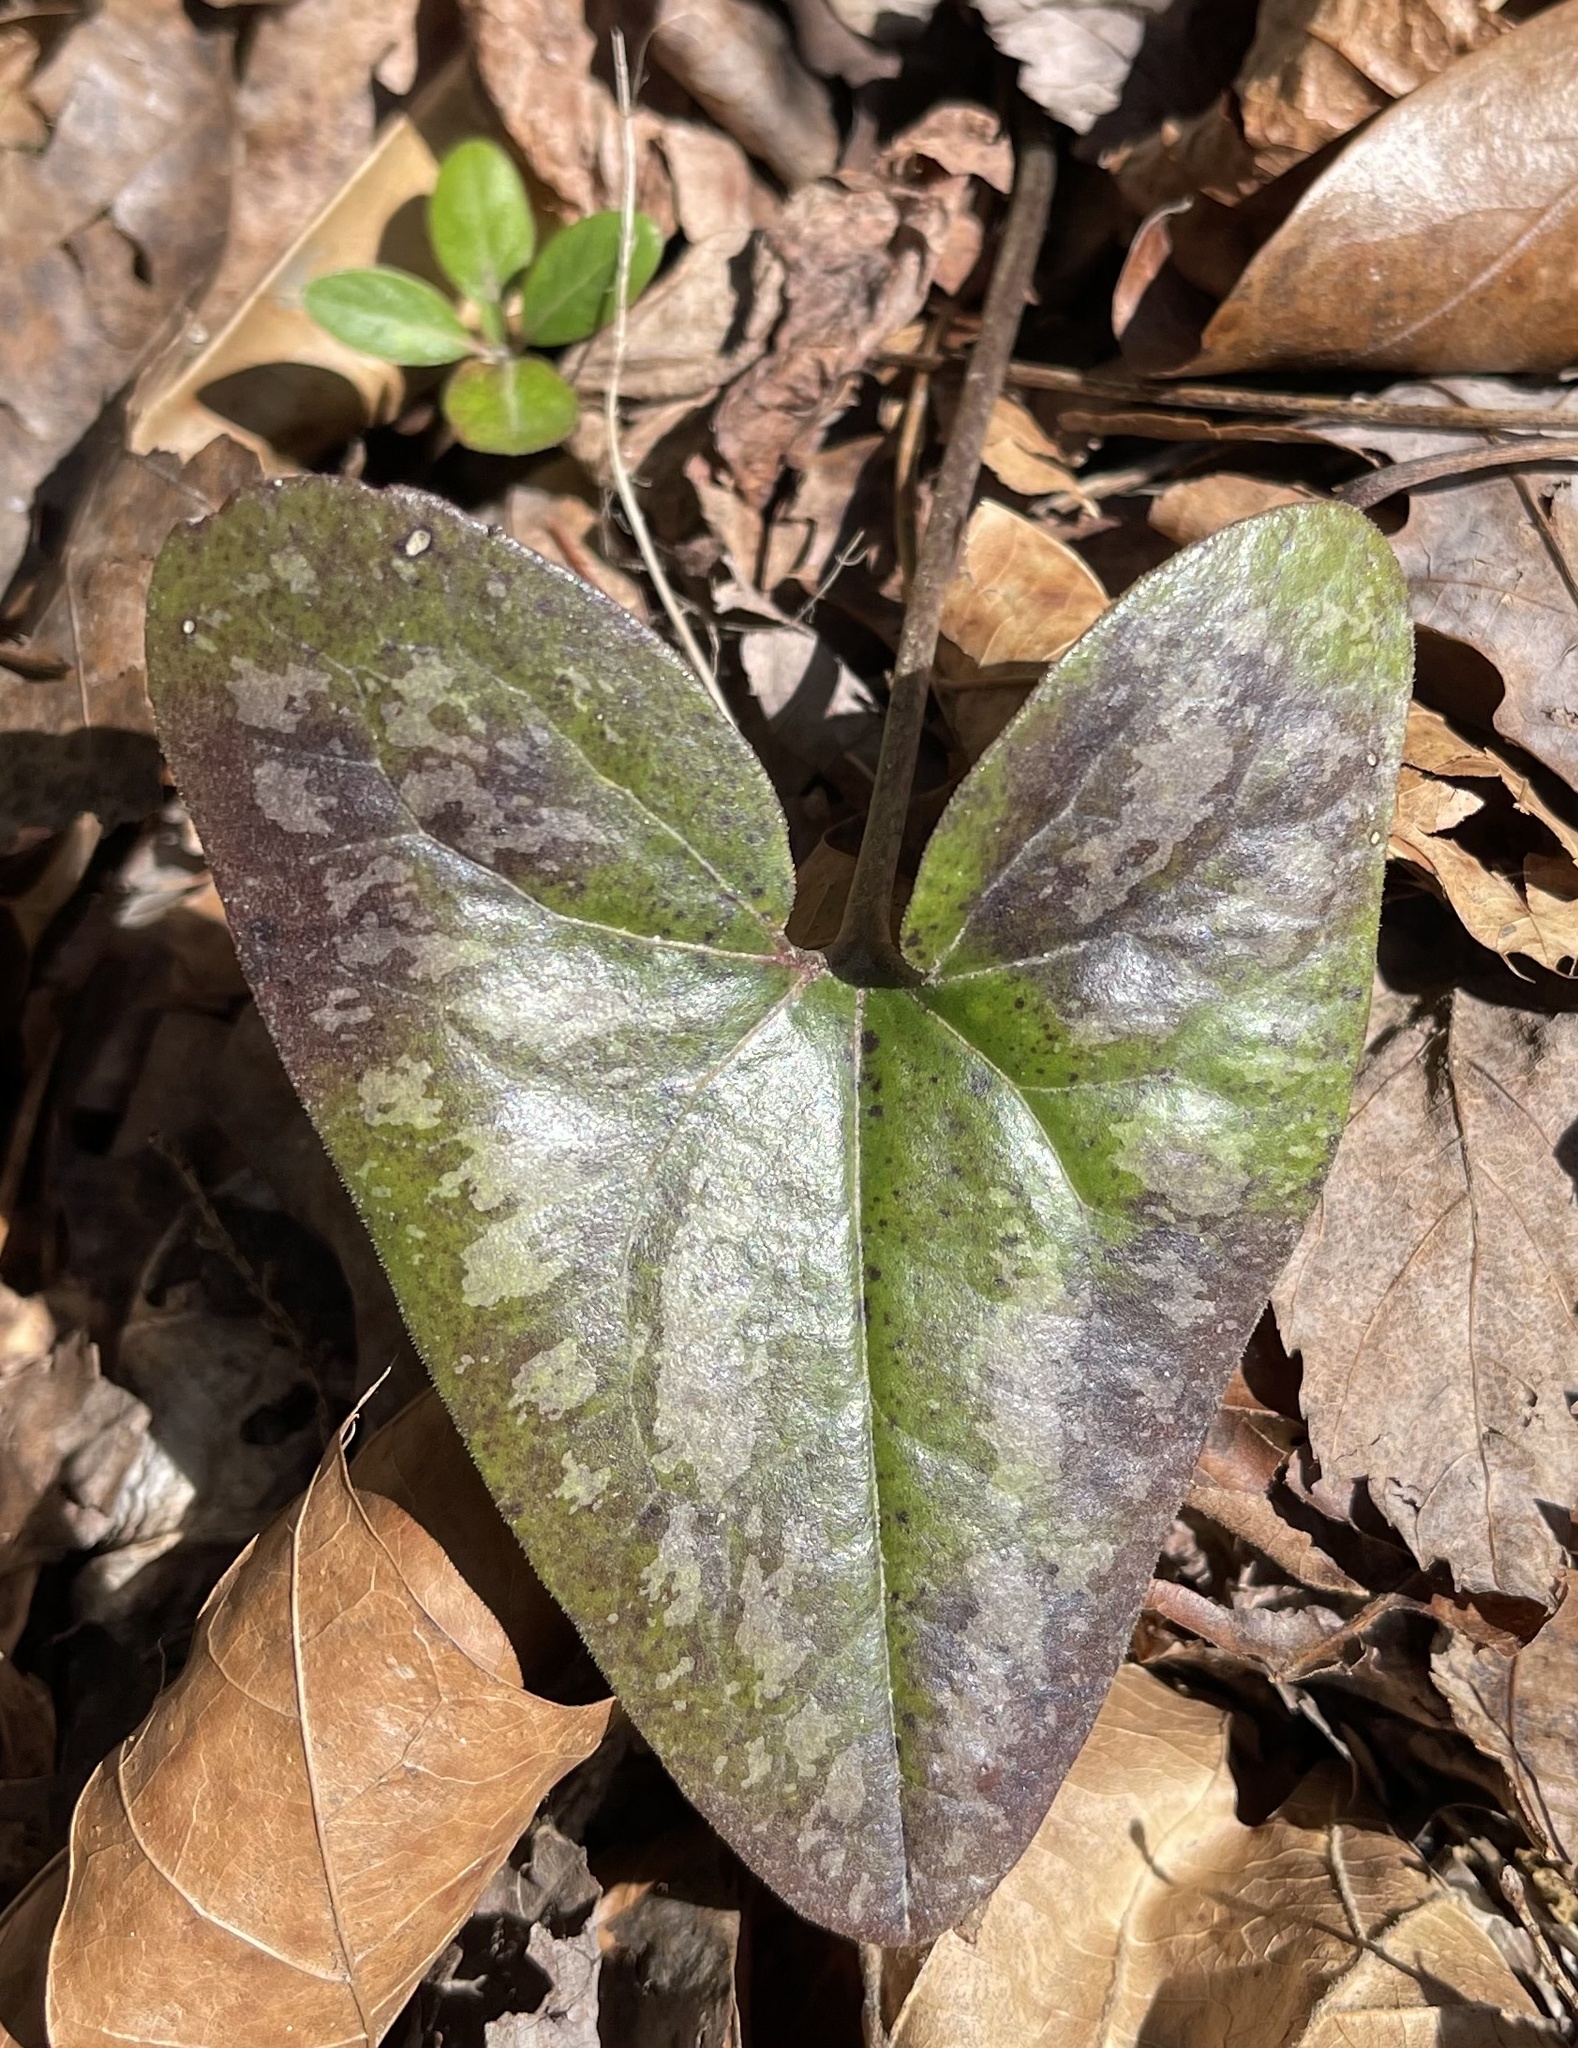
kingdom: Plantae
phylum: Tracheophyta
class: Magnoliopsida
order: Piperales
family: Aristolochiaceae
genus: Hexastylis
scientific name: Hexastylis arifolia
